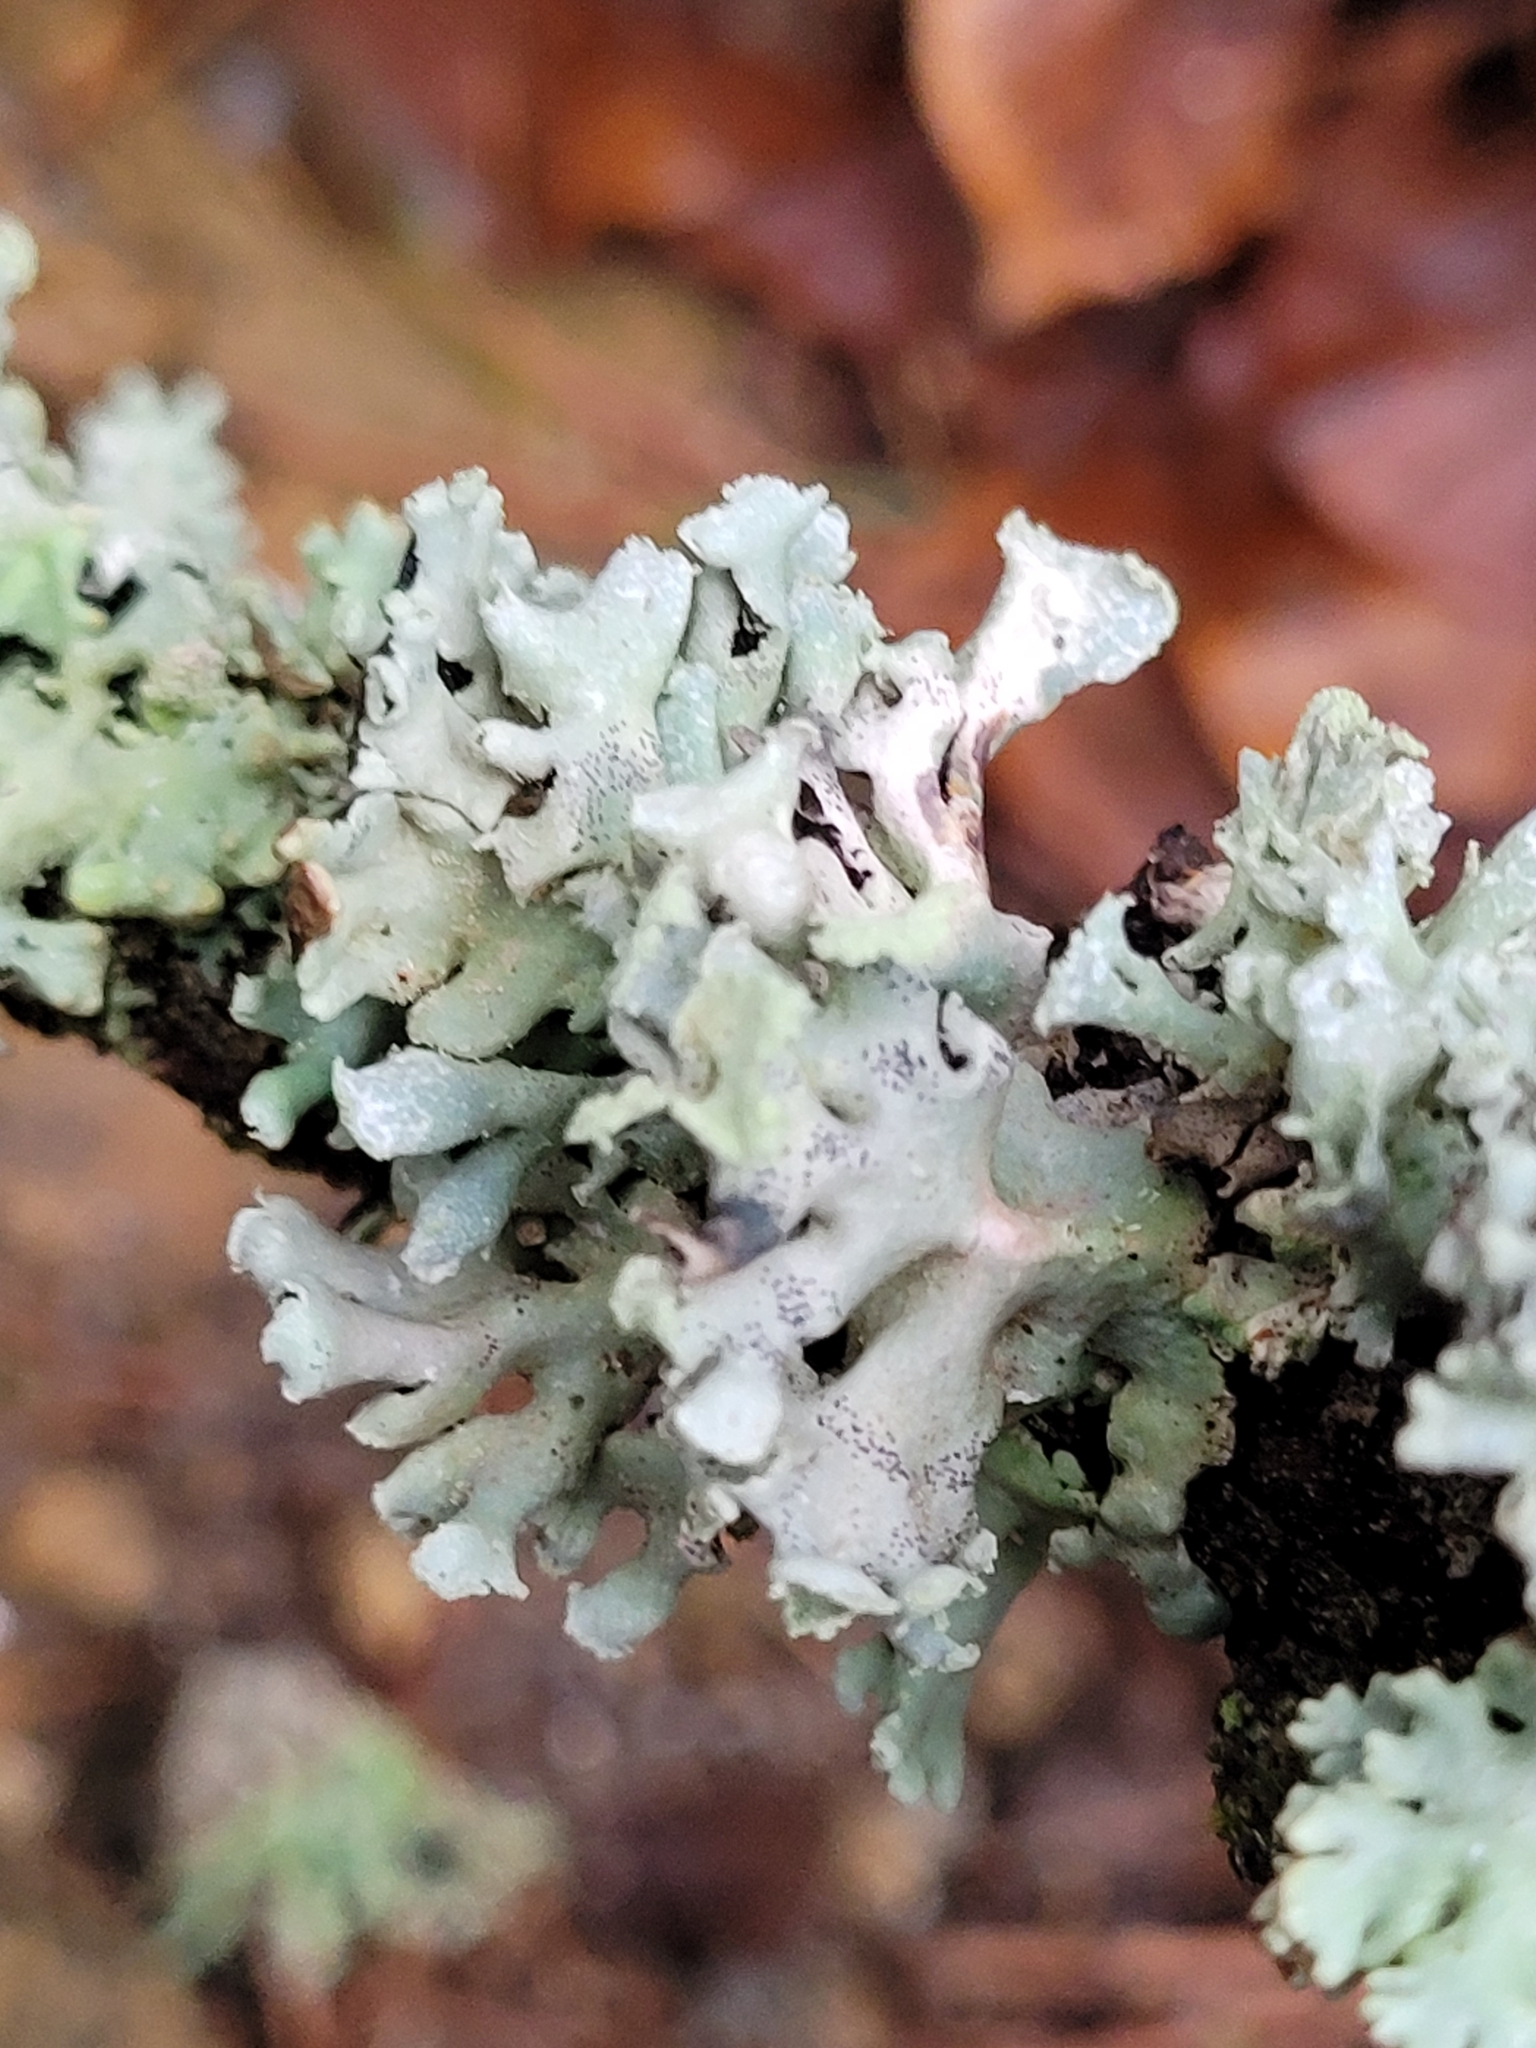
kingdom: Fungi
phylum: Ascomycota
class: Lecanoromycetes
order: Lecanorales
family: Parmeliaceae
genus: Hypogymnia
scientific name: Hypogymnia physodes
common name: Dark crottle
